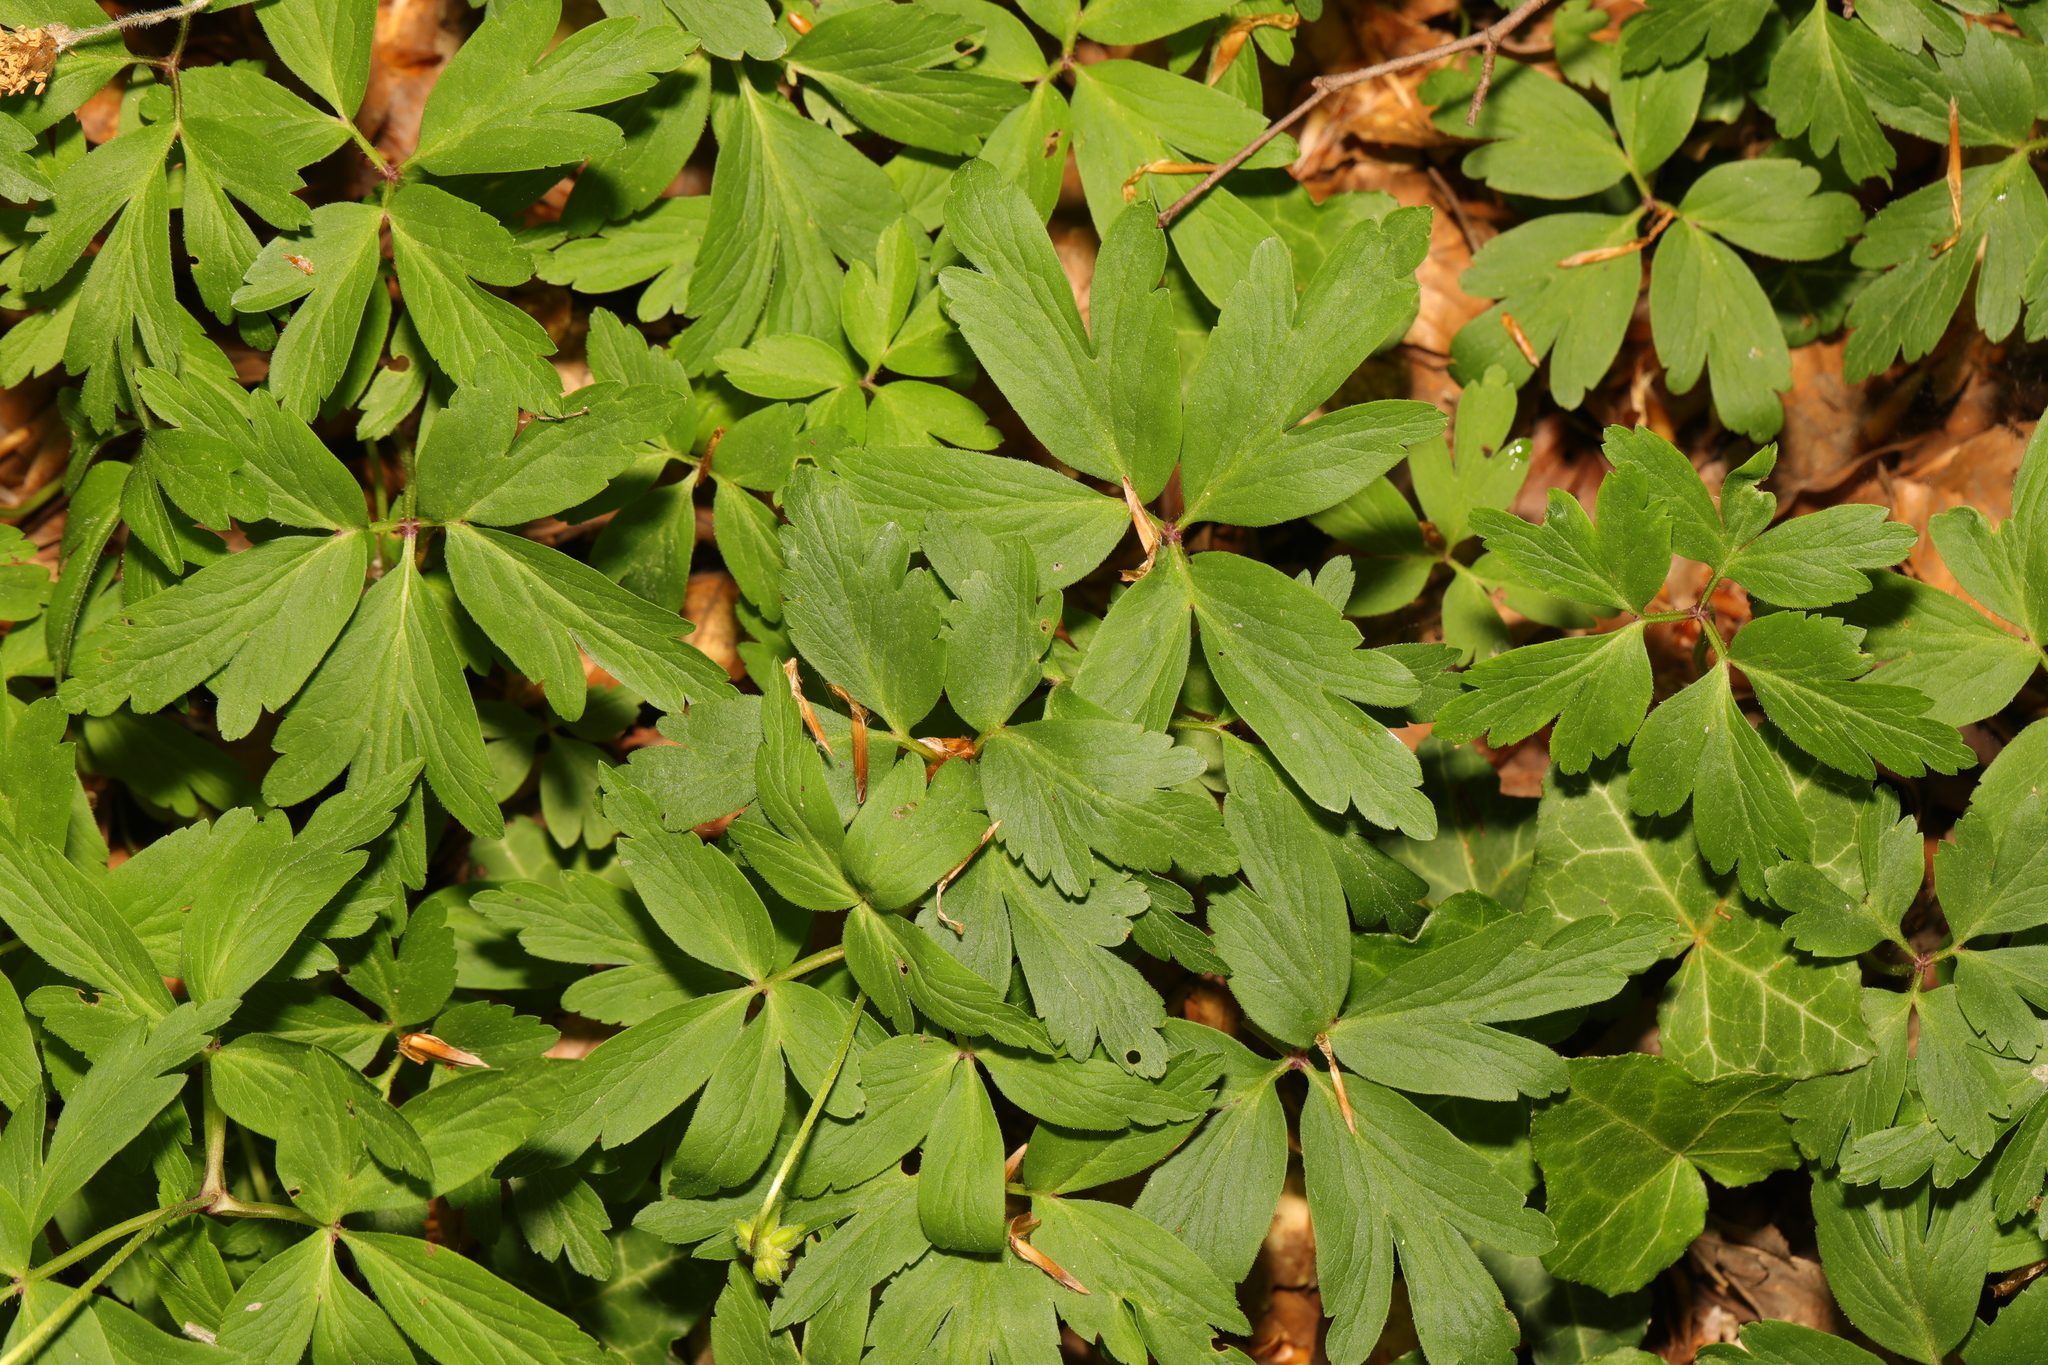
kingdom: Plantae
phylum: Tracheophyta
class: Magnoliopsida
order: Ranunculales
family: Ranunculaceae
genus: Anemone
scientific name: Anemone nemorosa
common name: Wood anemone
